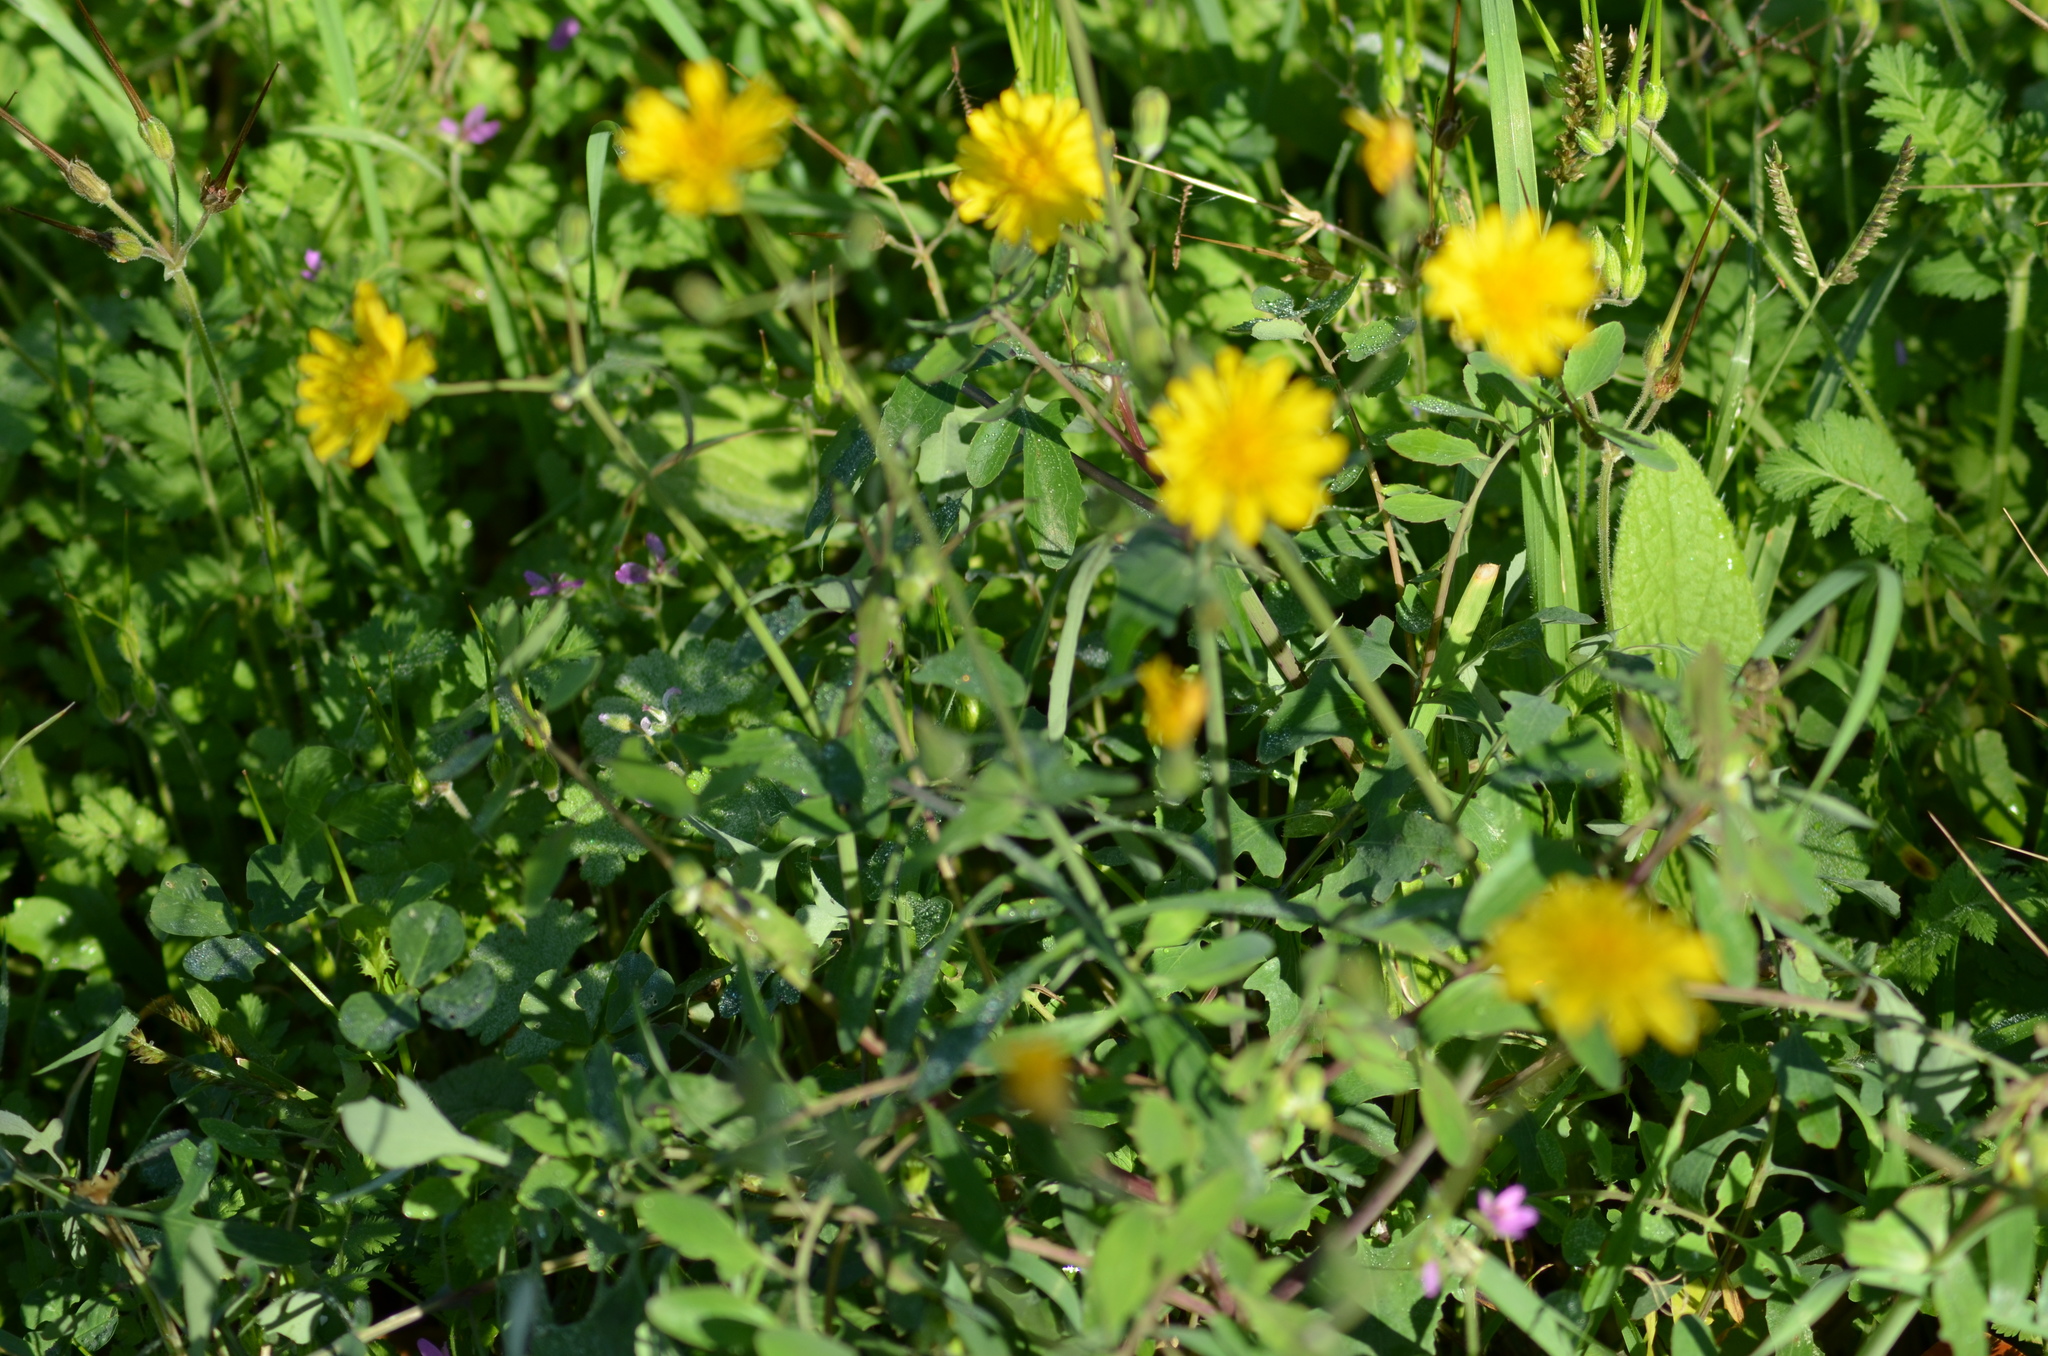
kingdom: Plantae
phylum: Tracheophyta
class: Magnoliopsida
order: Asterales
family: Asteraceae
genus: Sonchus
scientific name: Sonchus tenerrimus
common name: Clammy sowthistle
